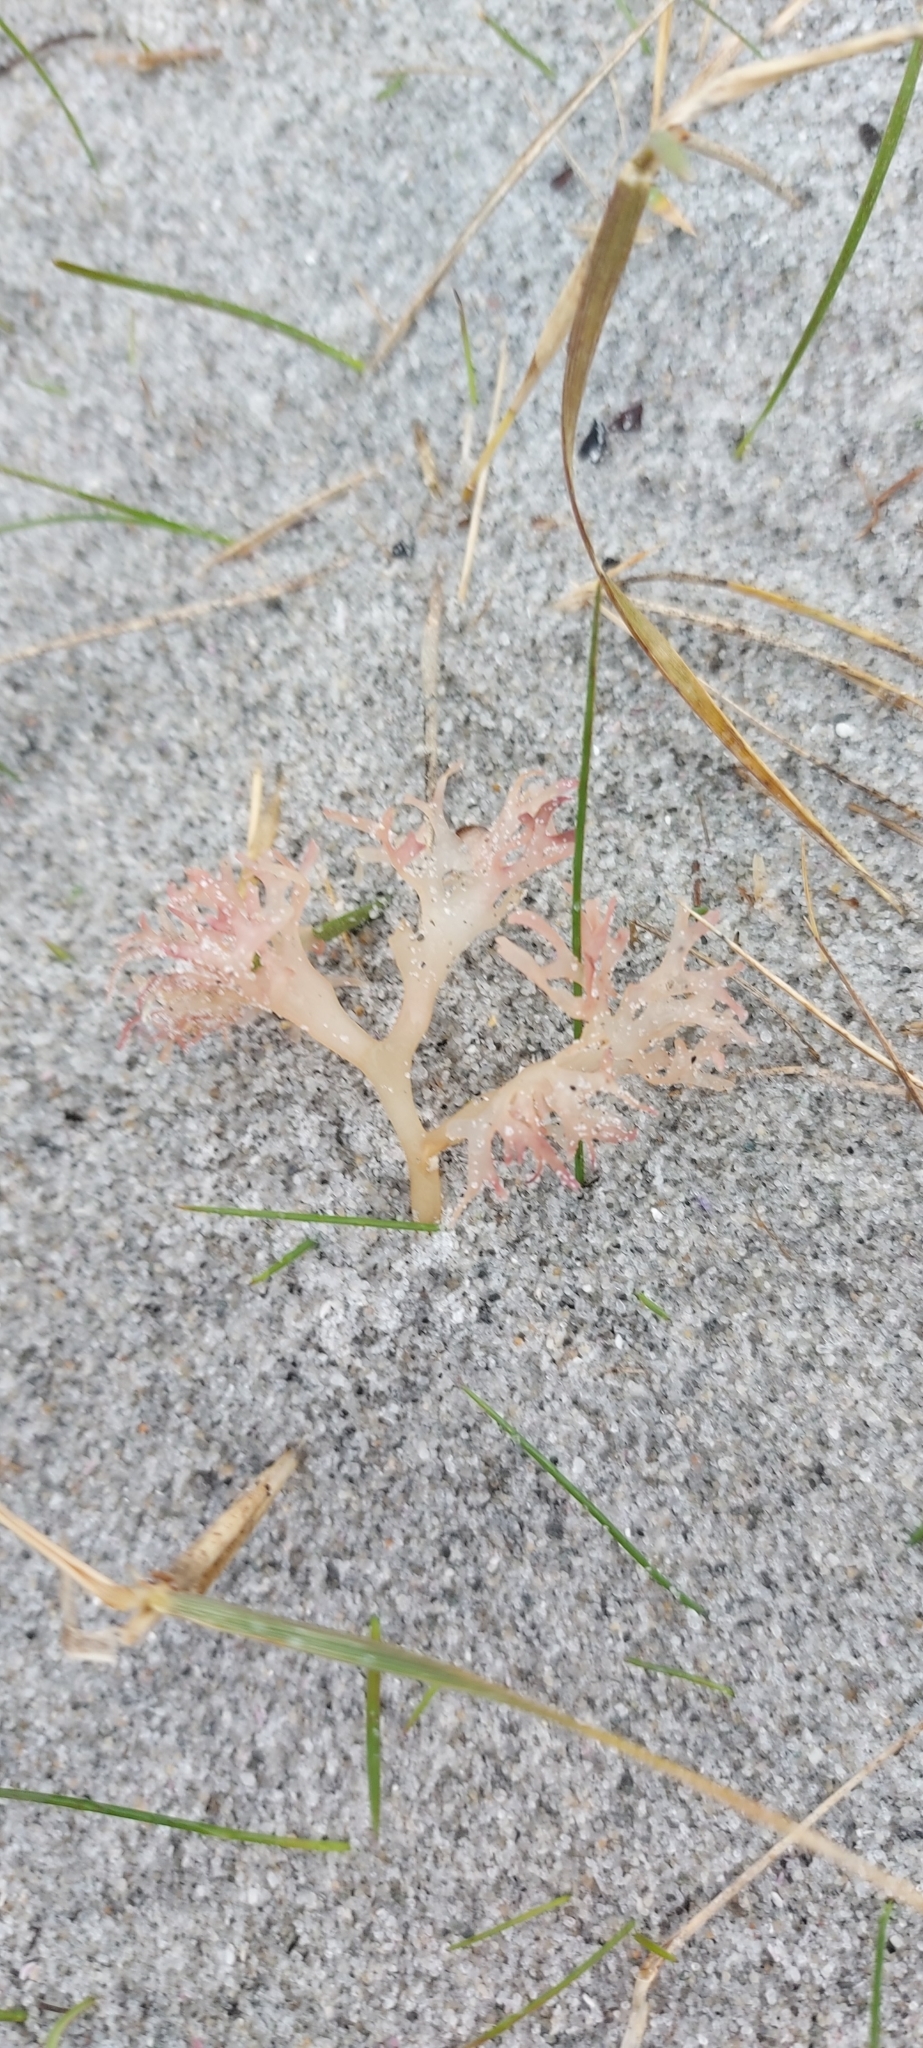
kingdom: Plantae
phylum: Rhodophyta
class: Florideophyceae
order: Gigartinales
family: Gigartinaceae
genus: Chondrus
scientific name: Chondrus crispus
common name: Carrageen
